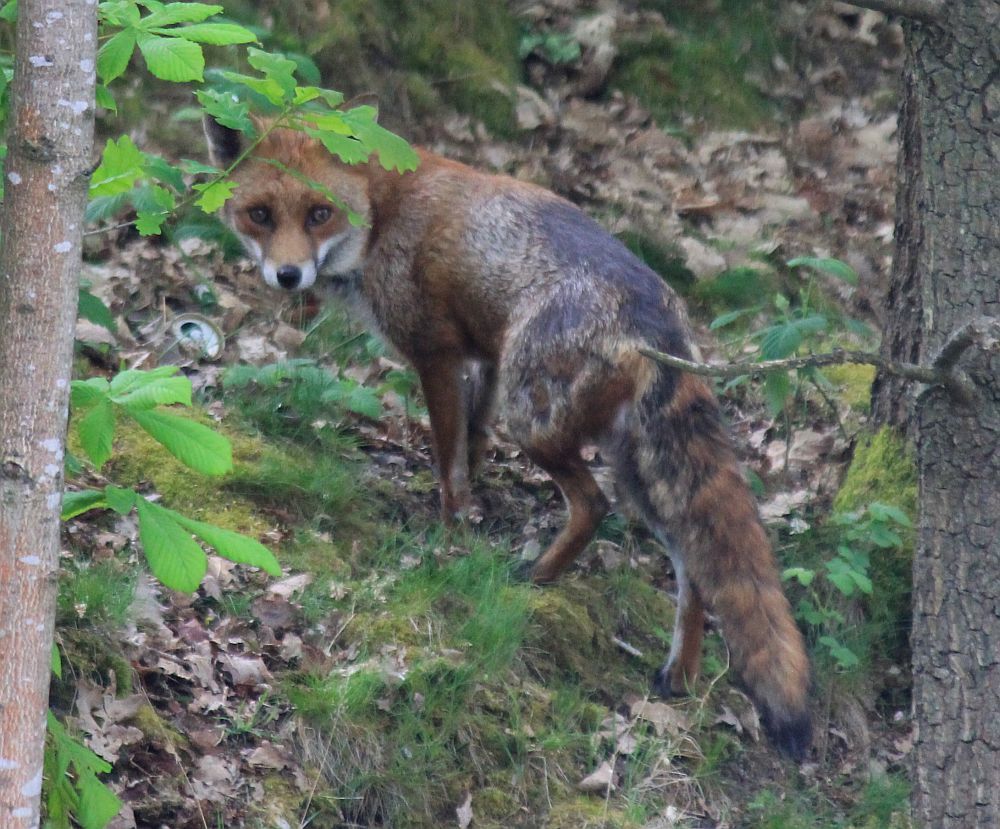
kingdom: Animalia
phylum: Chordata
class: Mammalia
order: Carnivora
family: Canidae
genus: Vulpes
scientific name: Vulpes vulpes
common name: Red fox
